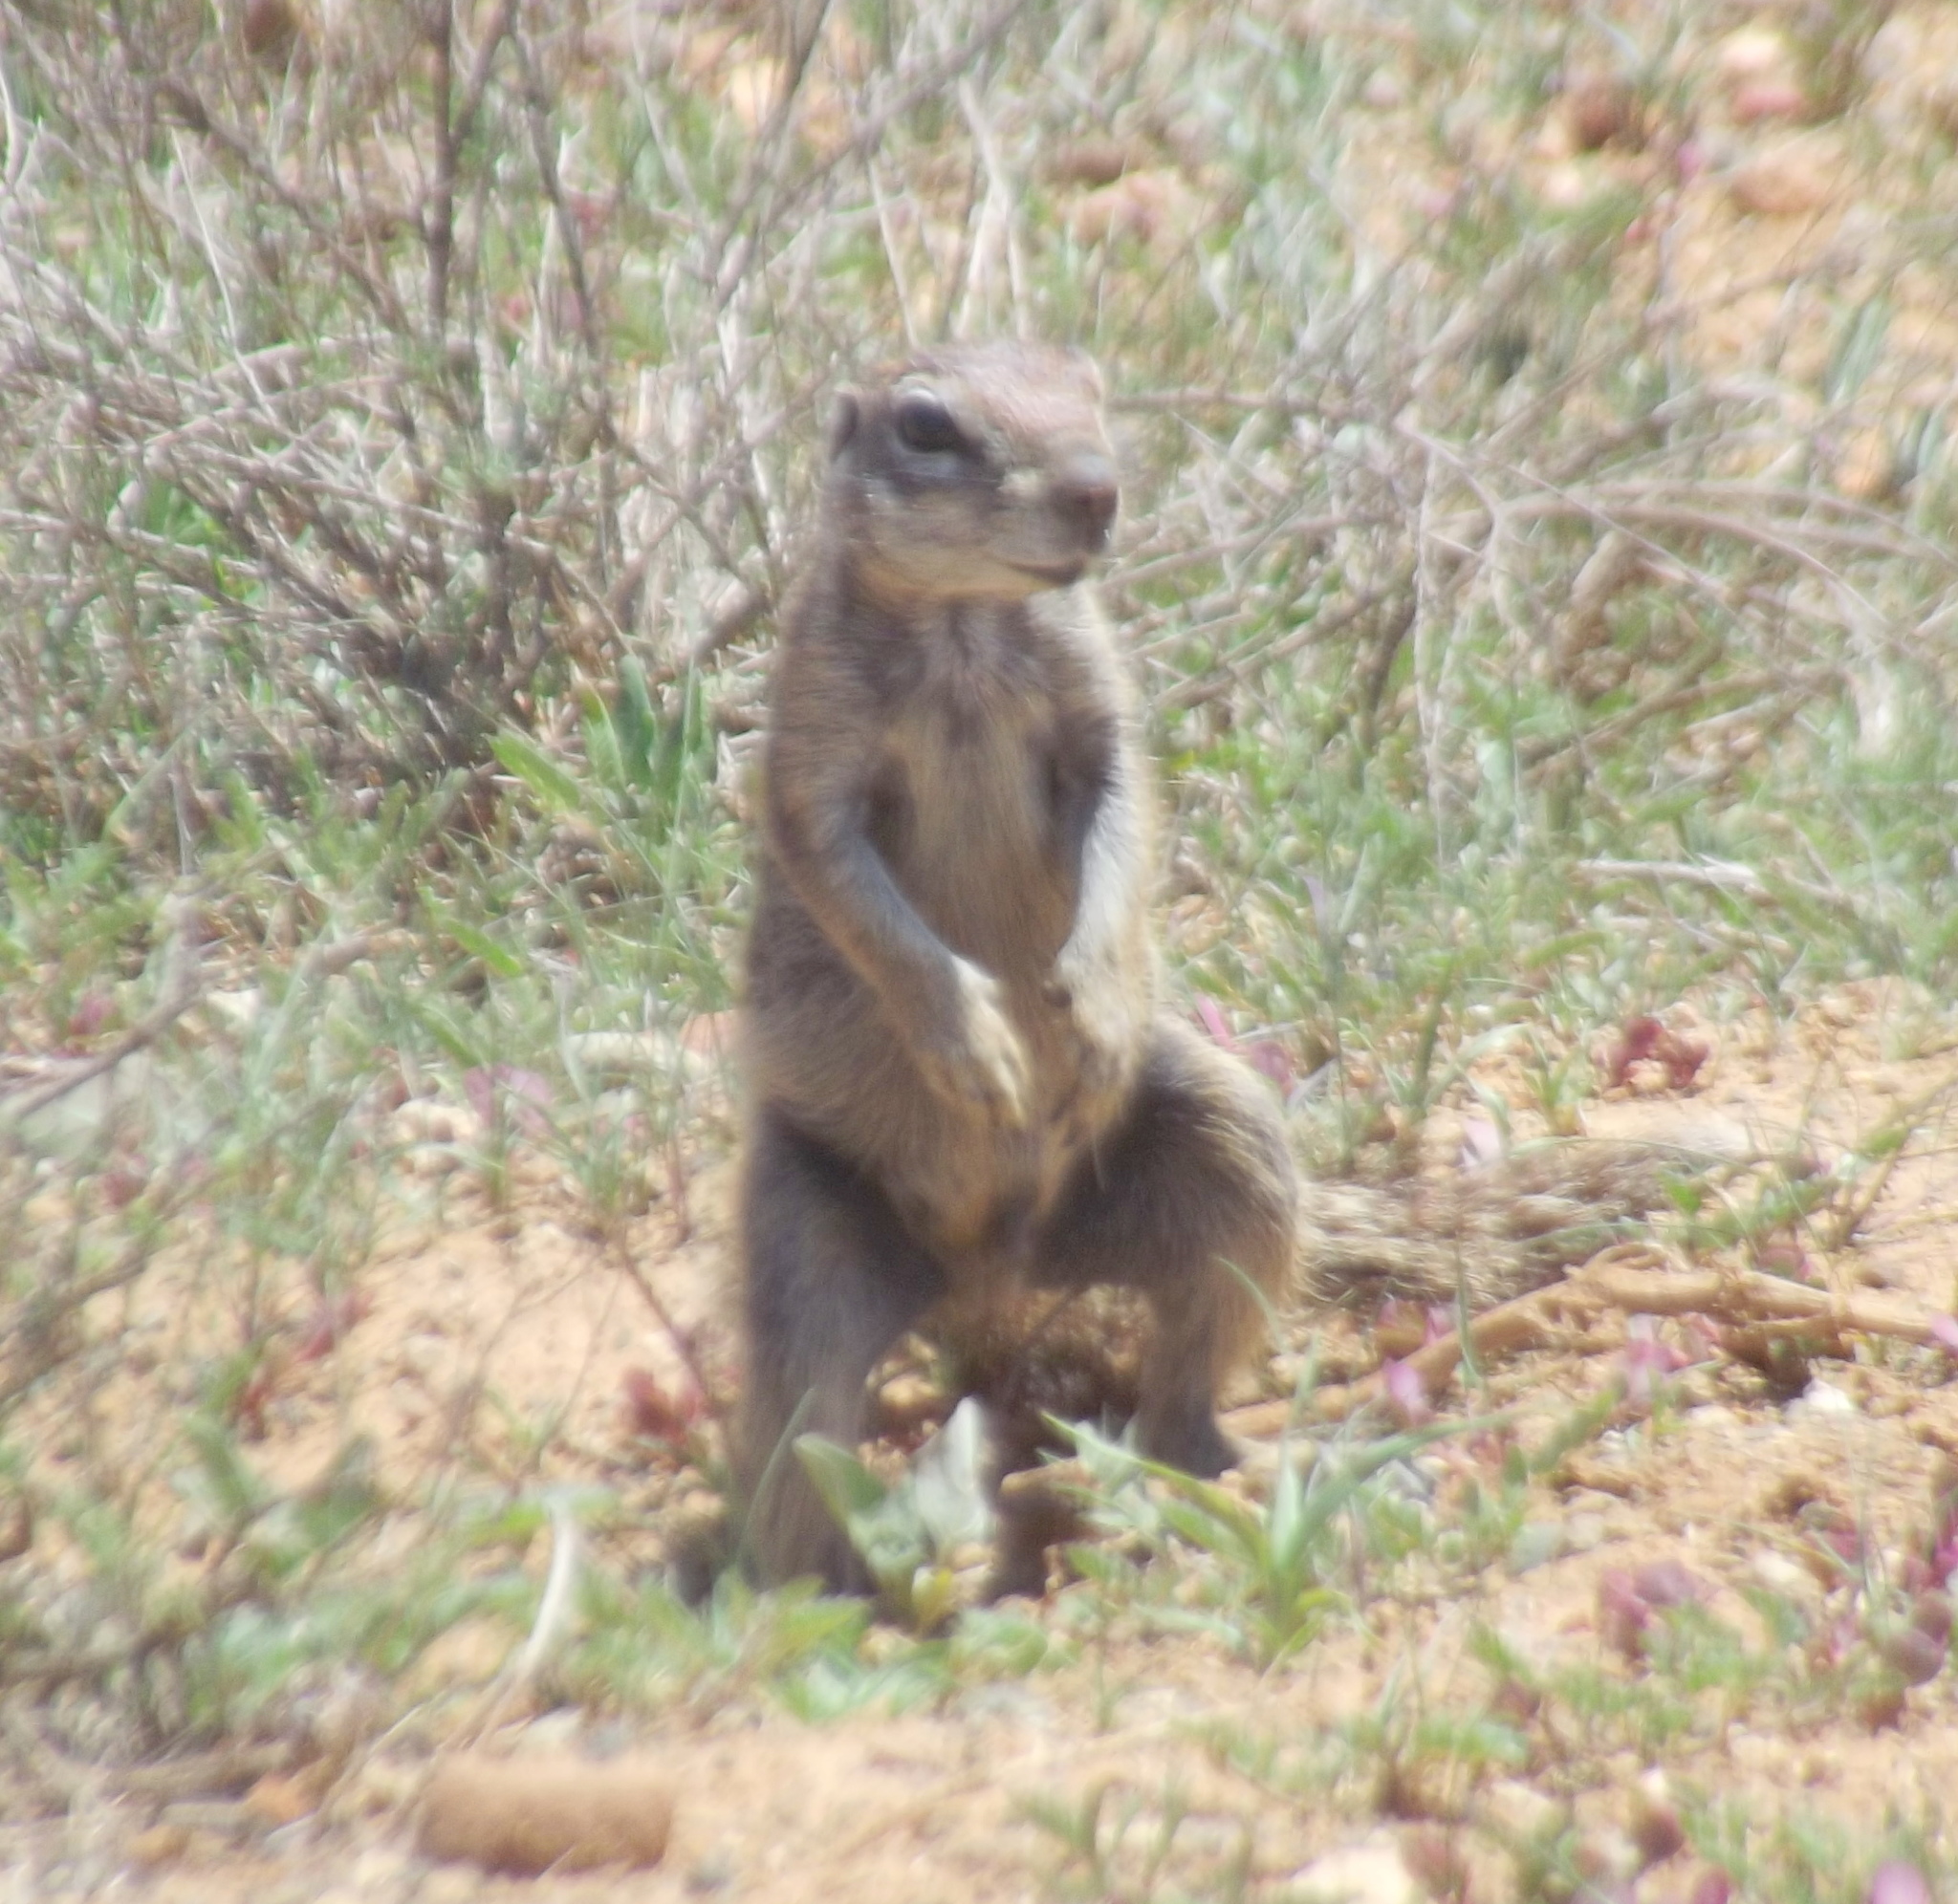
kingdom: Animalia
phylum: Chordata
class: Mammalia
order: Rodentia
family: Sciuridae
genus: Xerus
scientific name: Xerus inauris
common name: South african ground squirrel
